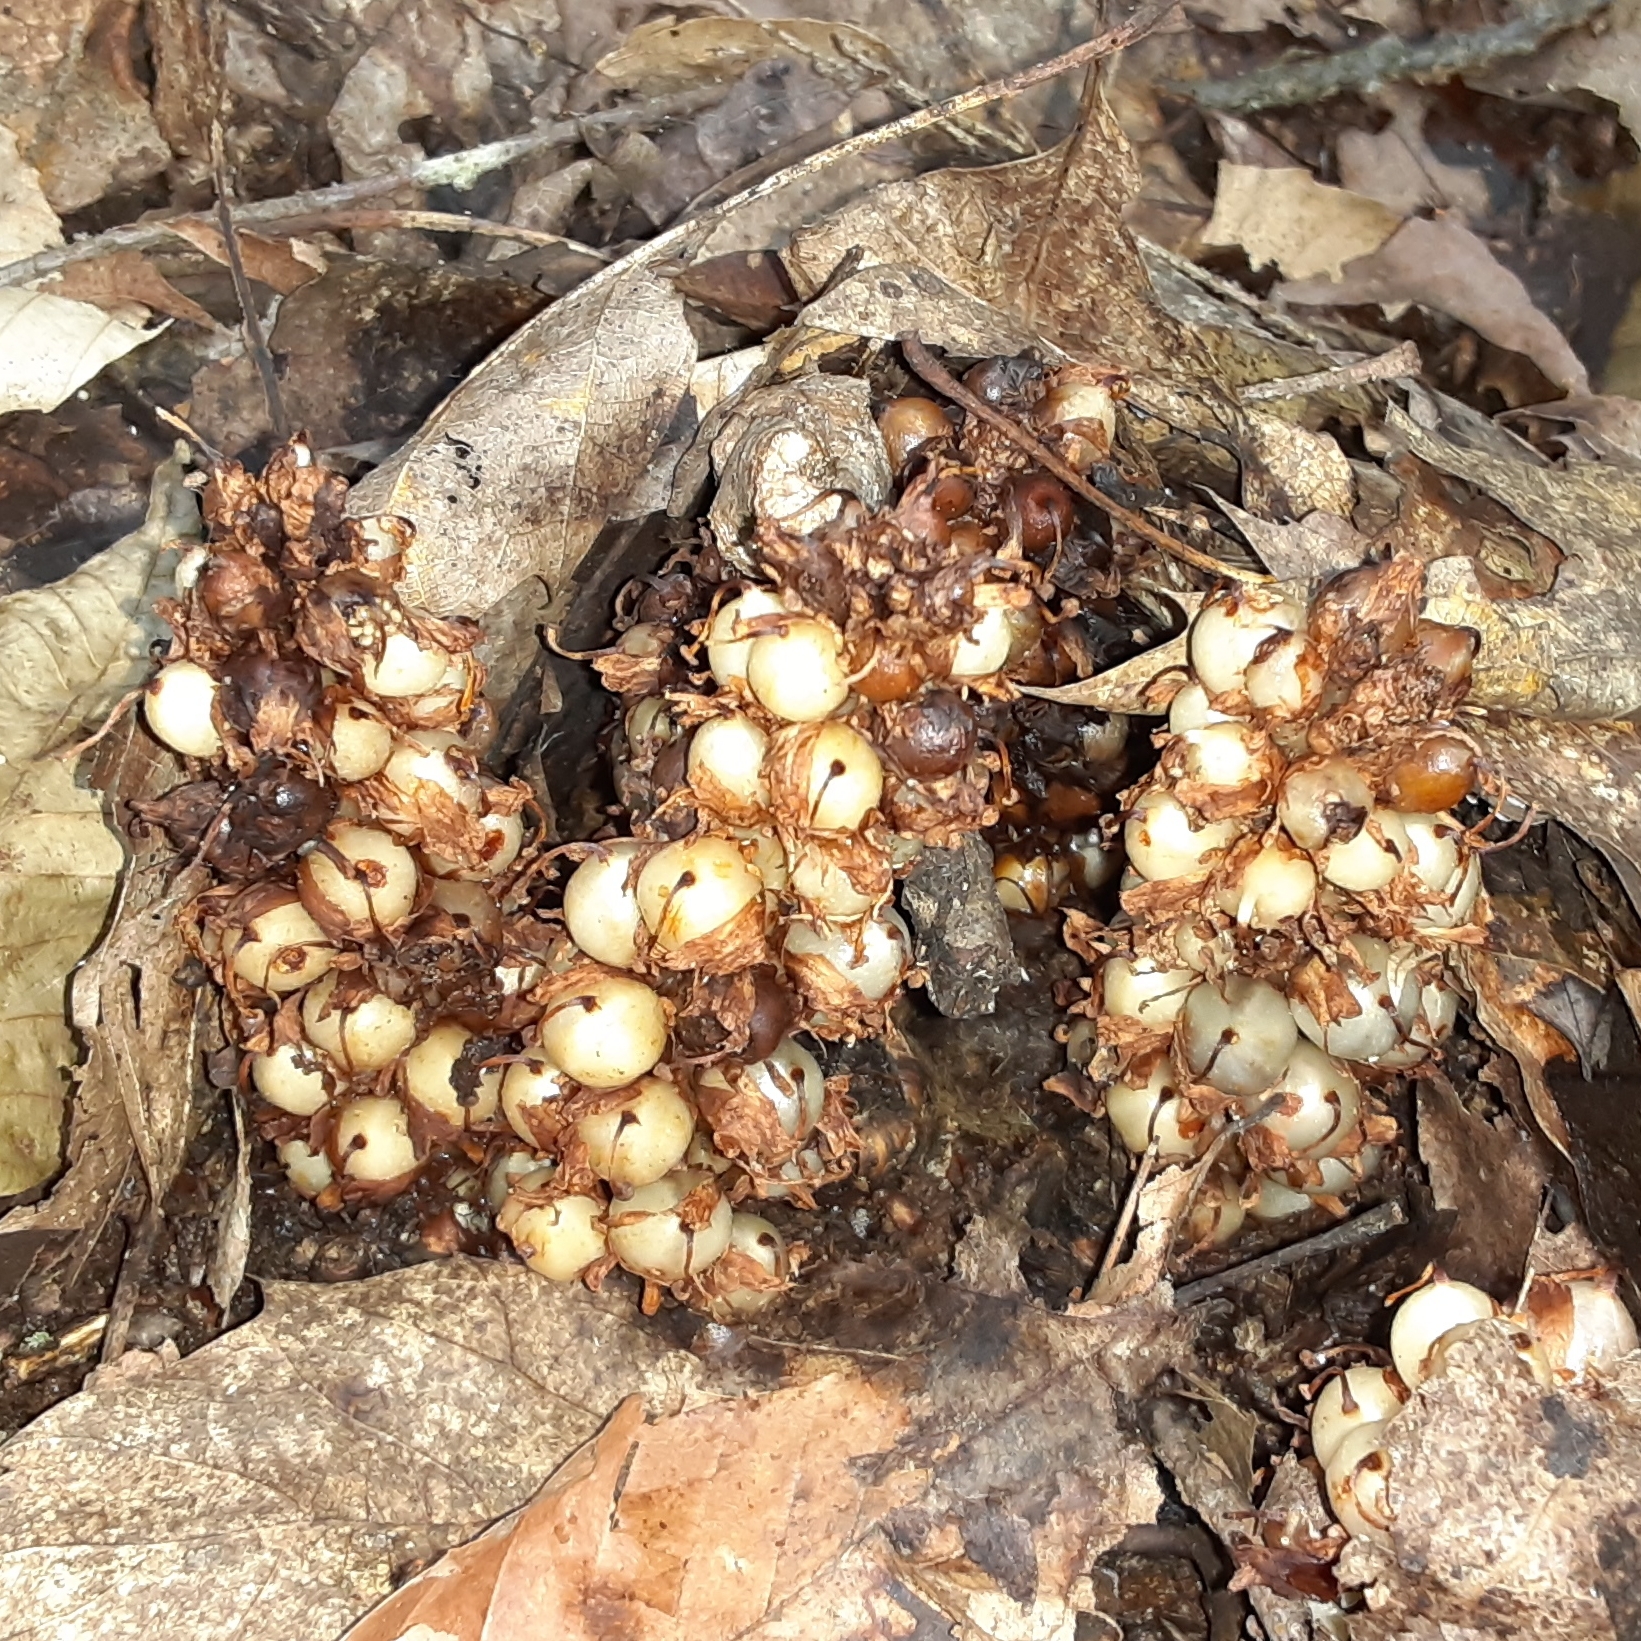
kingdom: Plantae
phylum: Tracheophyta
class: Magnoliopsida
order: Lamiales
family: Orobanchaceae
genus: Conopholis
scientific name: Conopholis americana
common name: American cancer-root
